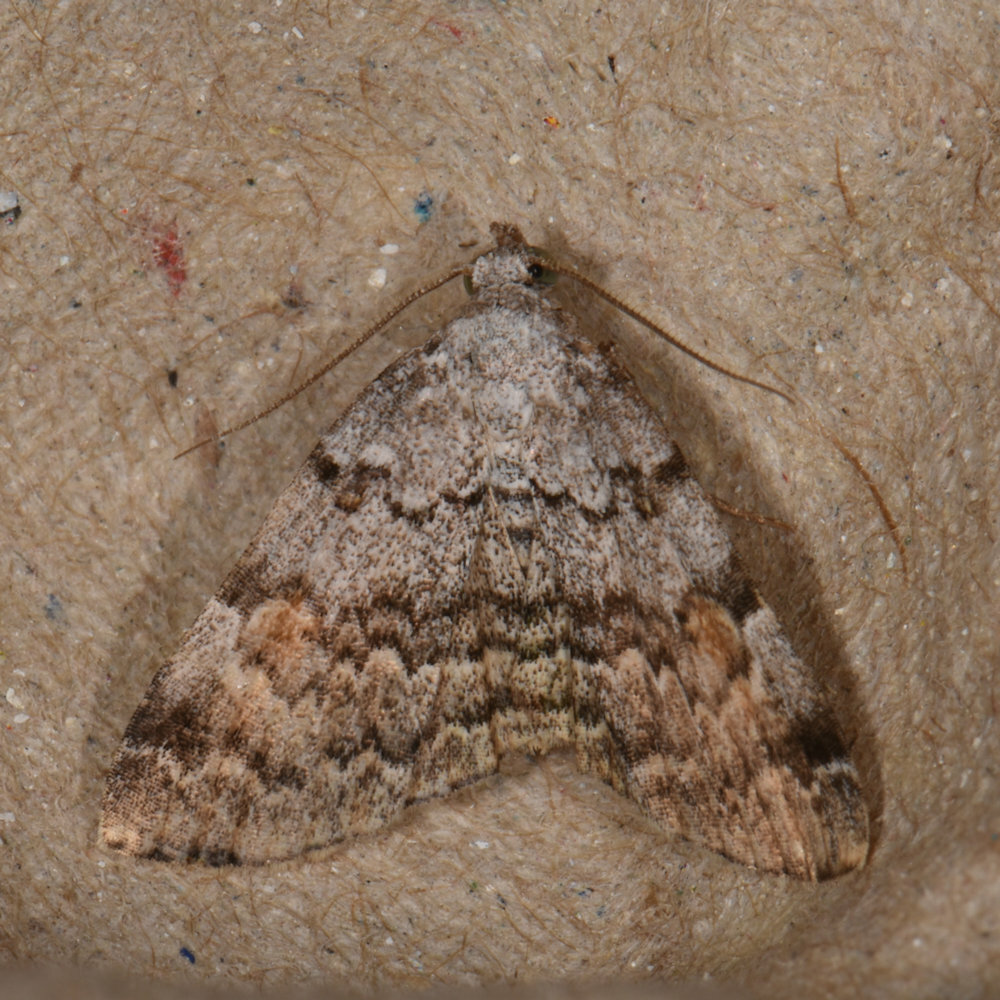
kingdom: Animalia
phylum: Arthropoda
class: Insecta
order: Lepidoptera
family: Erebidae
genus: Idia
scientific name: Idia americalis
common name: American idia moth
